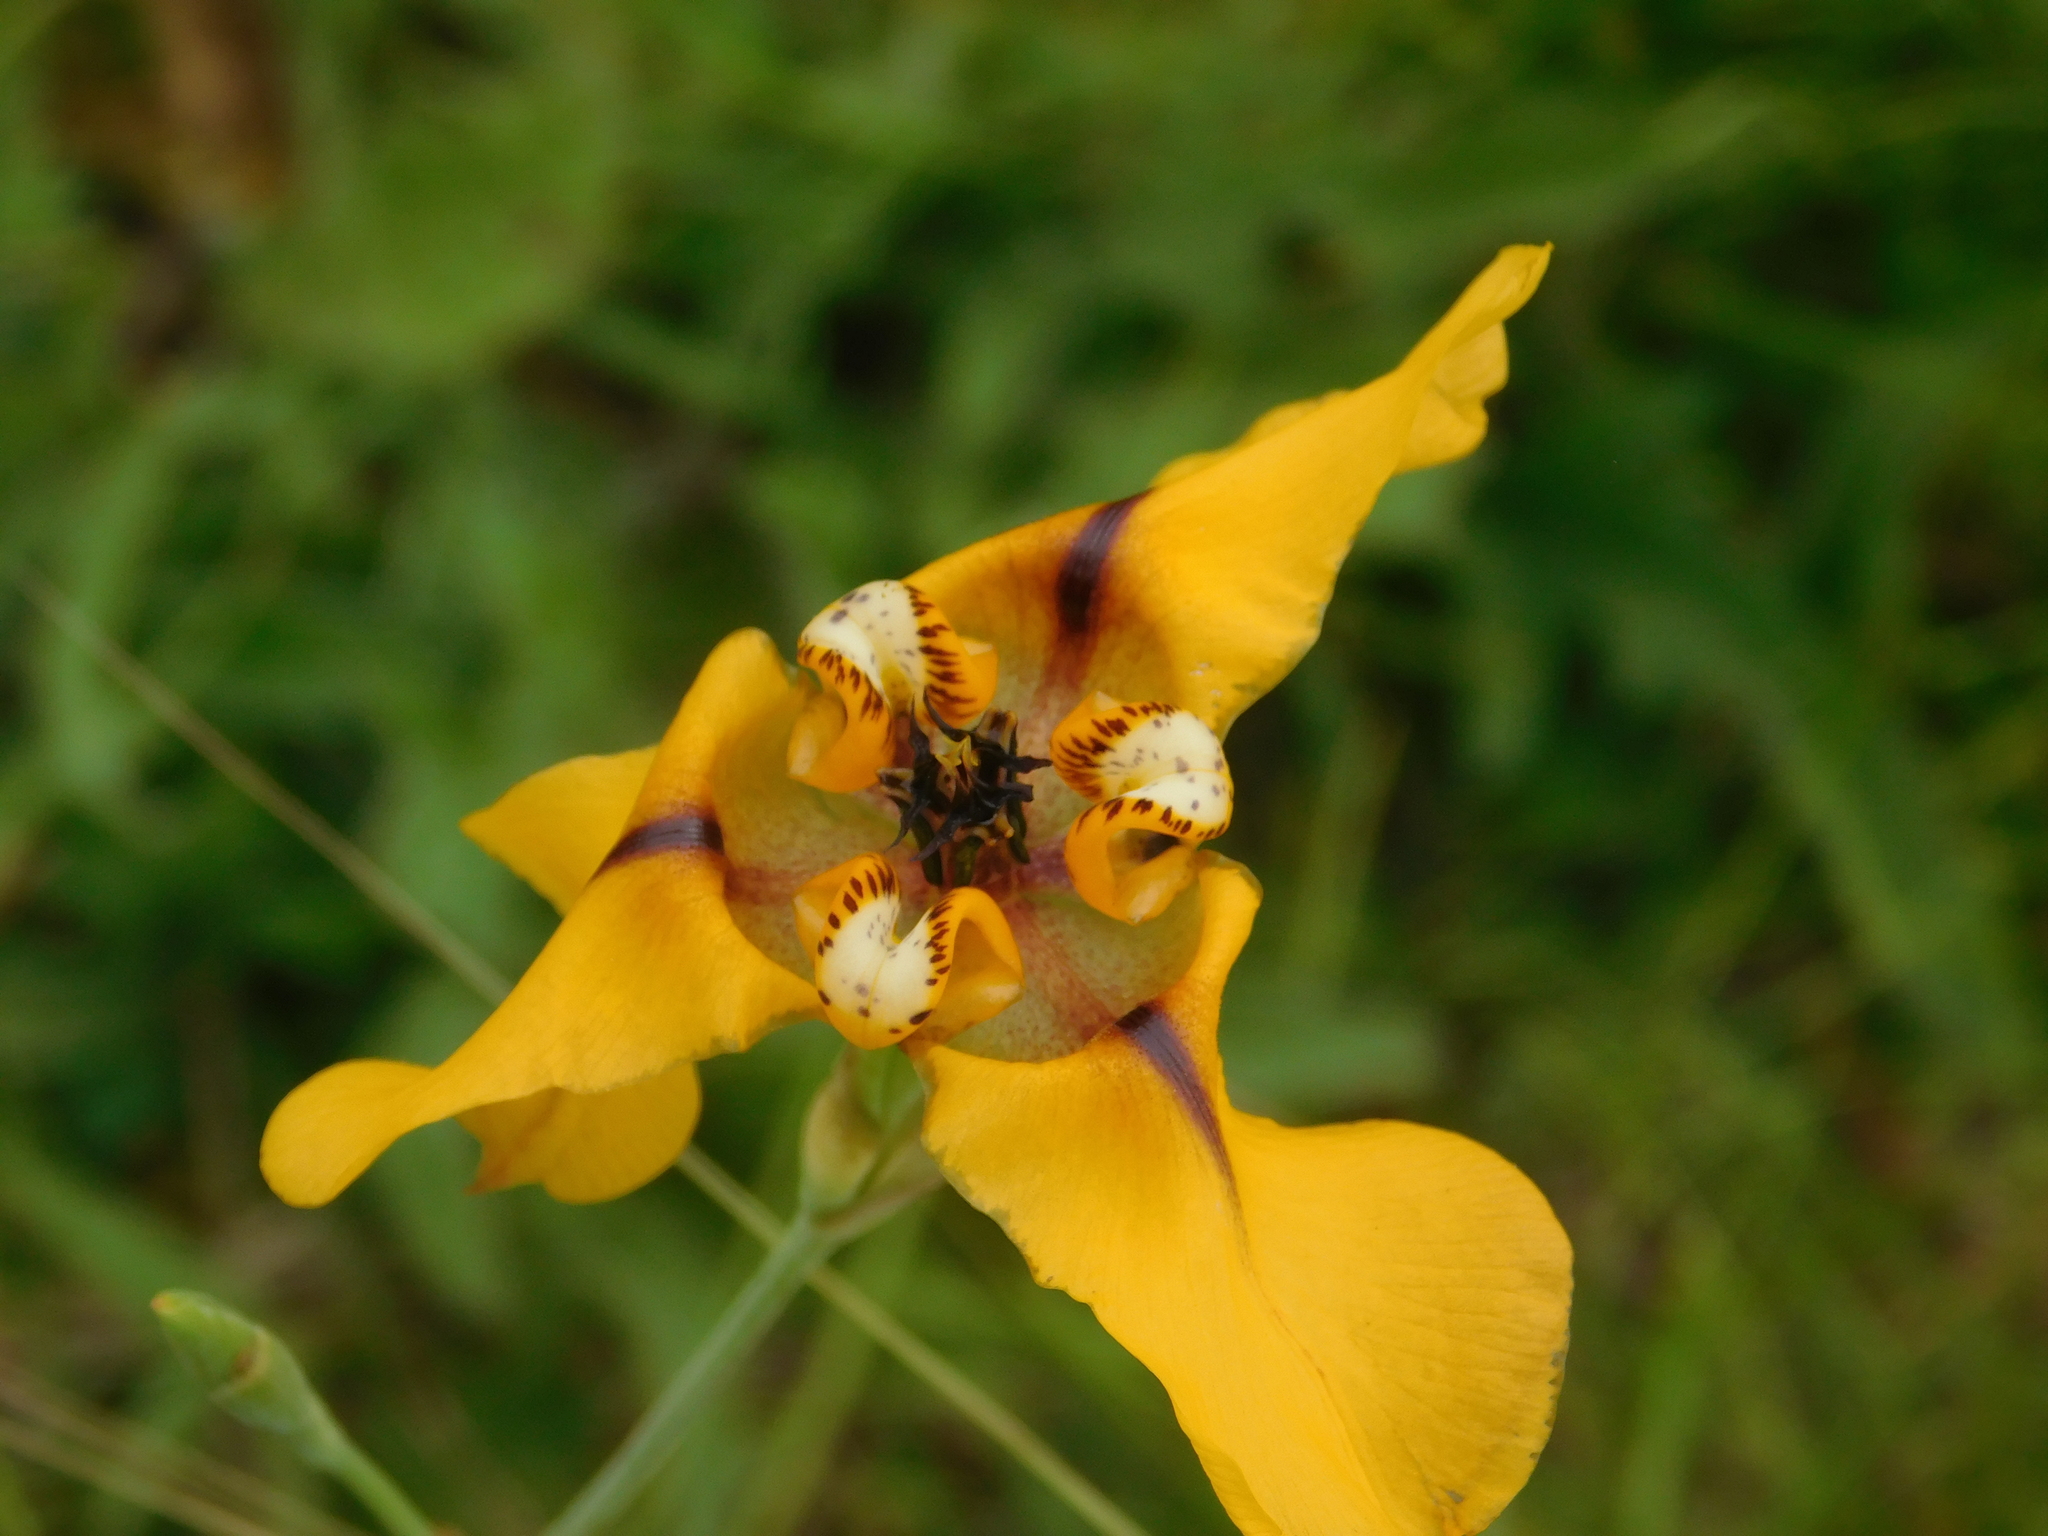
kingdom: Plantae
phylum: Tracheophyta
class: Liliopsida
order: Asparagales
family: Iridaceae
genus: Cypella
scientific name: Cypella herbertii
